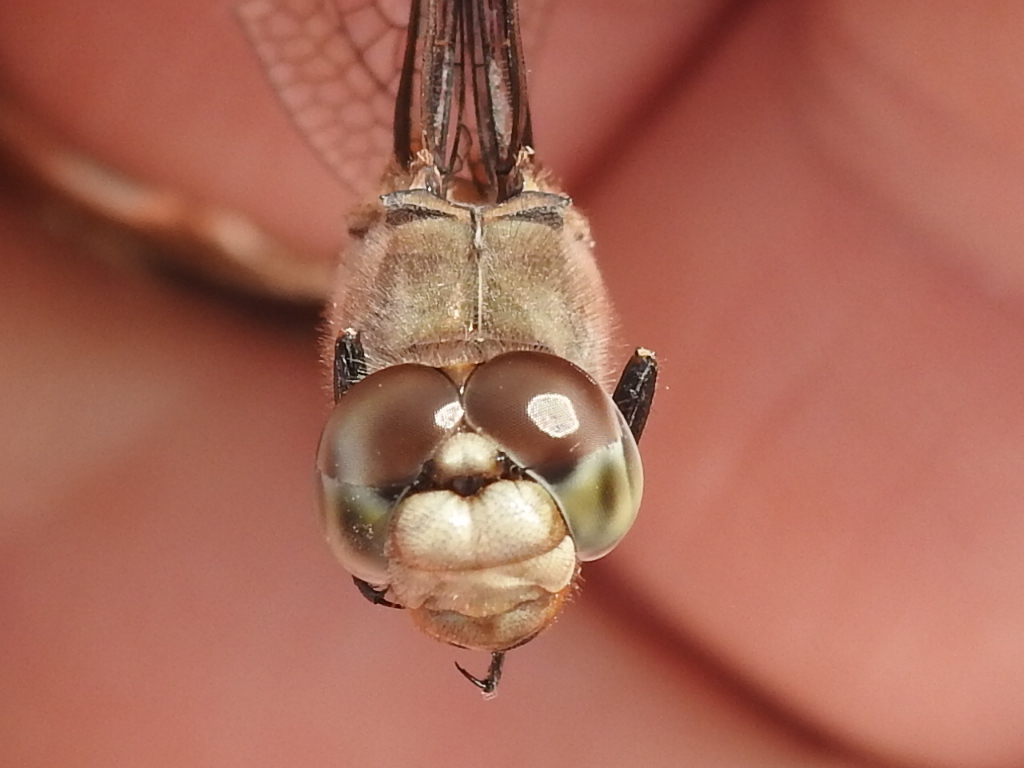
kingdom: Animalia
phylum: Arthropoda
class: Insecta
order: Odonata
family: Libellulidae
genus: Brachymesia
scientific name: Brachymesia furcata
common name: Red-taled pennant
